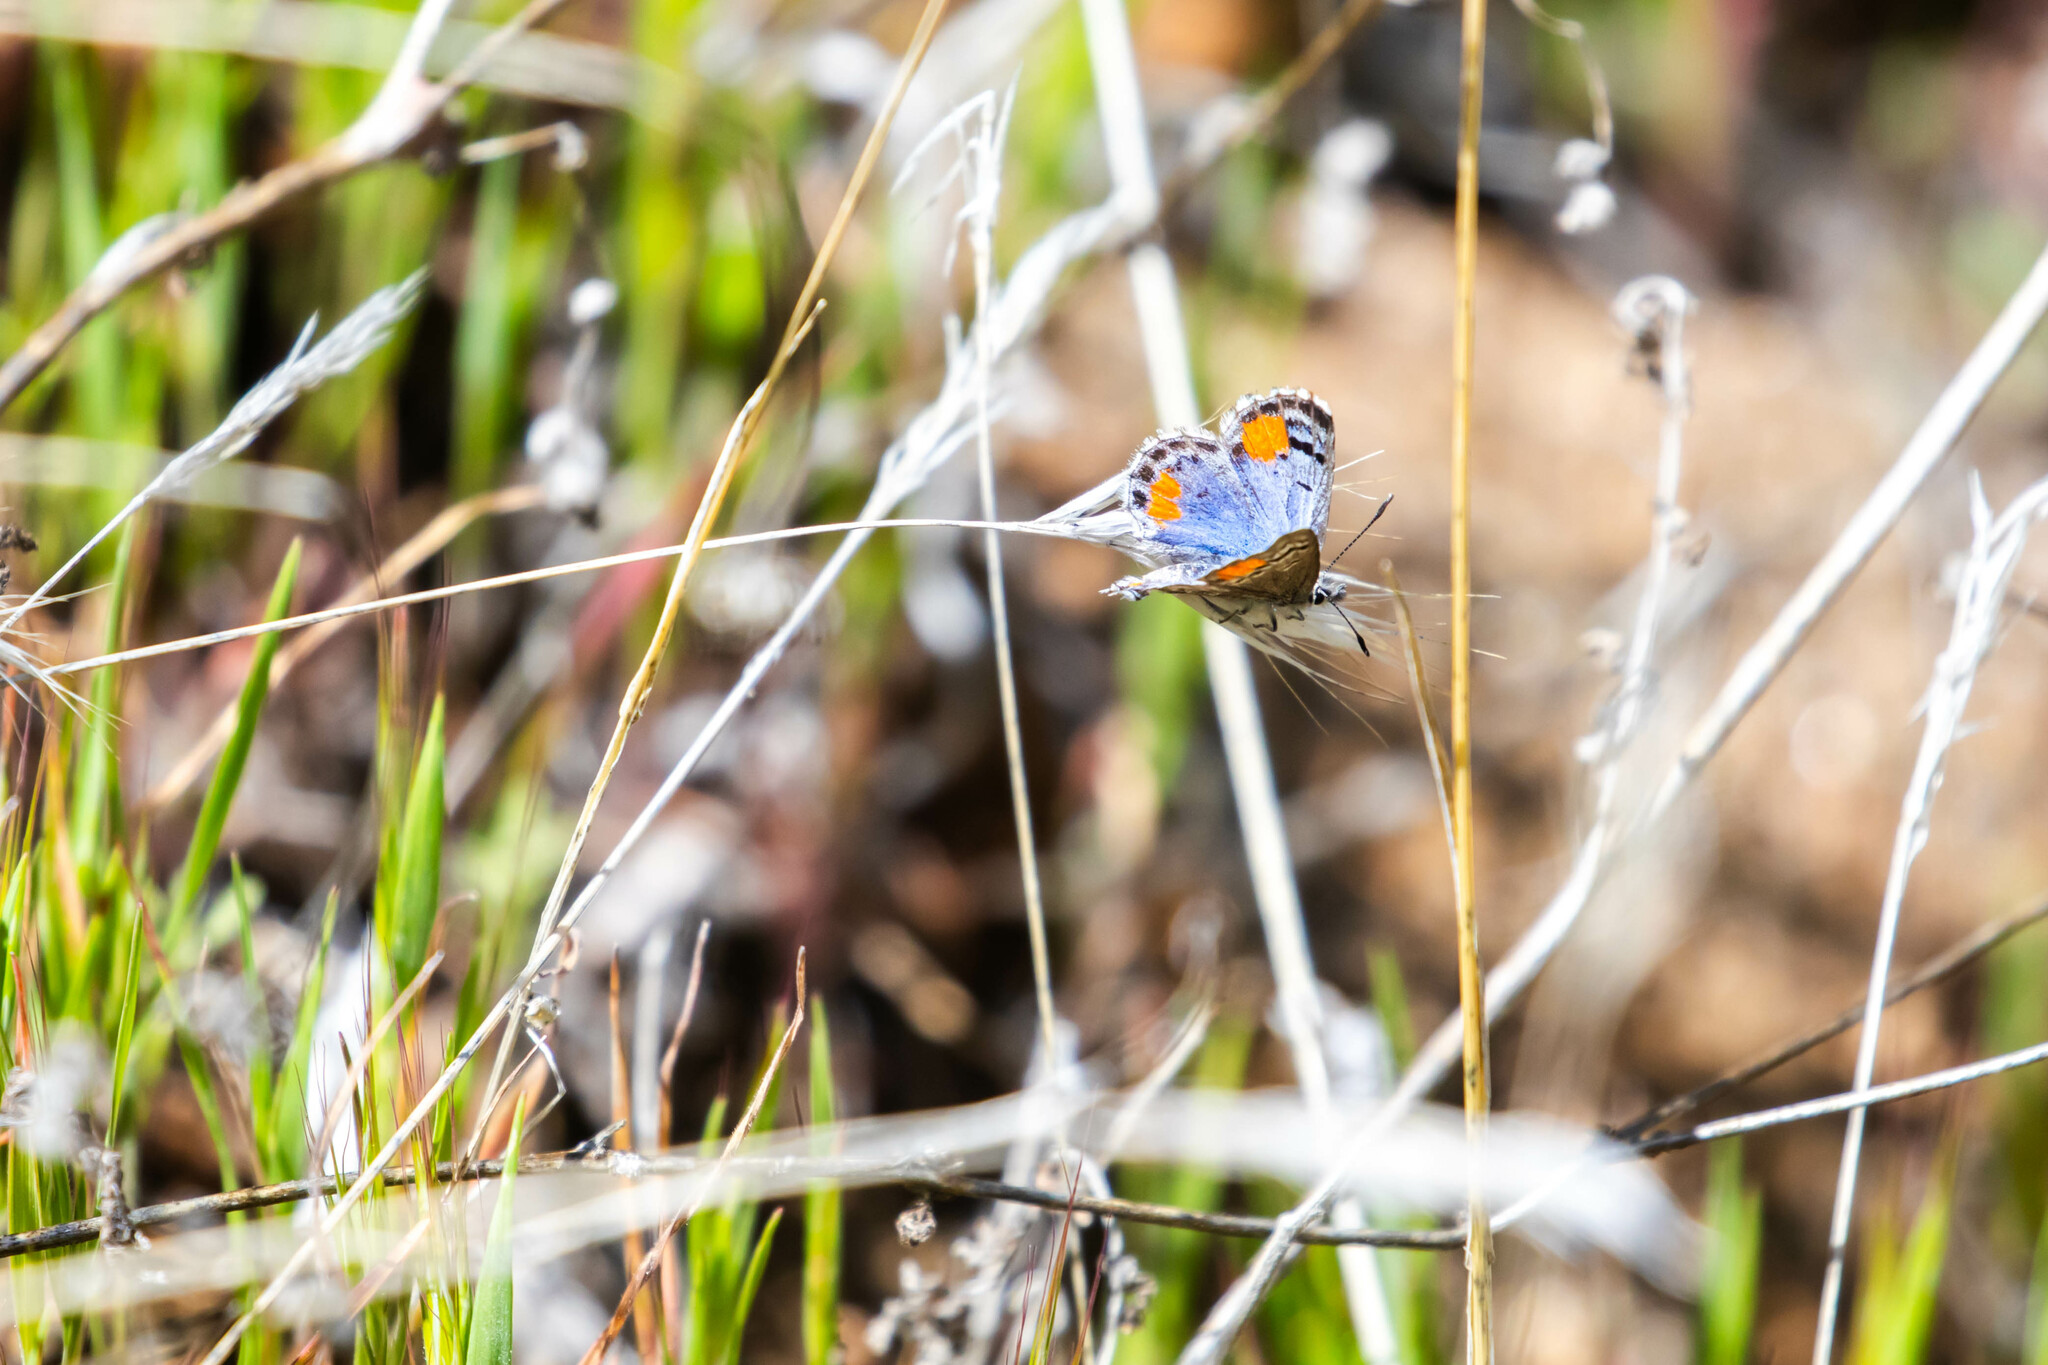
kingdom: Animalia
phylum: Arthropoda
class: Insecta
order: Lepidoptera
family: Lycaenidae
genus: Philotes
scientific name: Philotes sonorensis
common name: Sonoran blue
